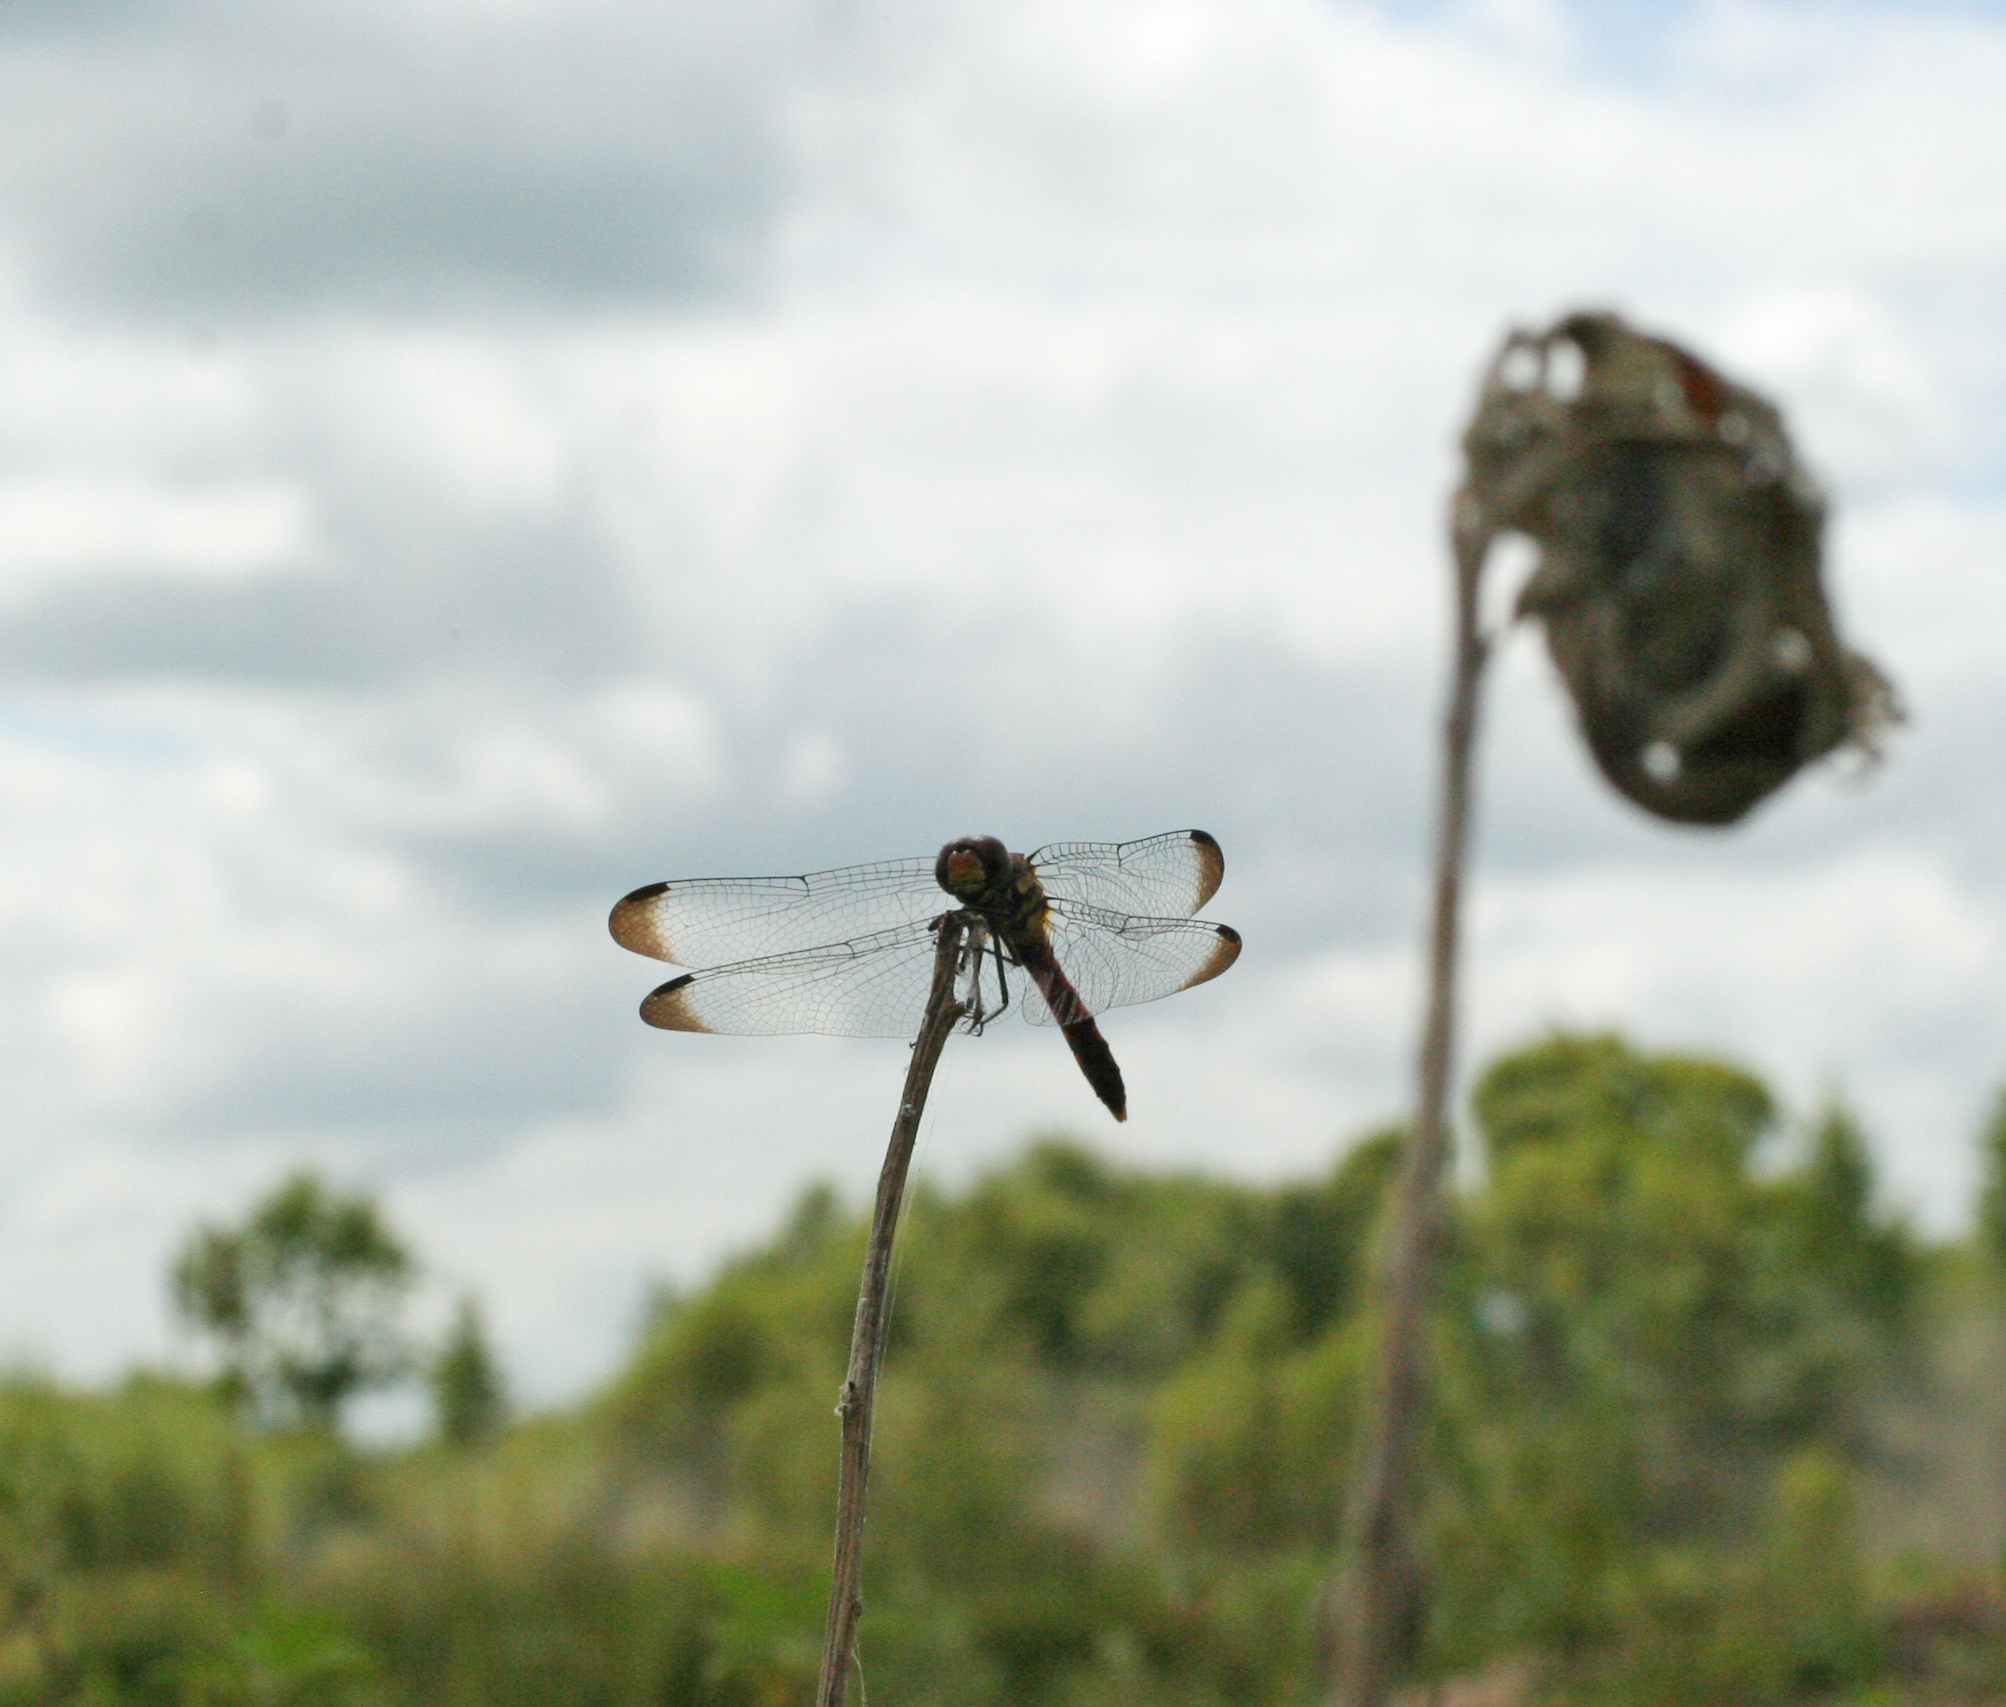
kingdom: Animalia
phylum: Arthropoda
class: Insecta
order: Odonata
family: Libellulidae
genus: Sympetrum
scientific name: Sympetrum infuscatum
